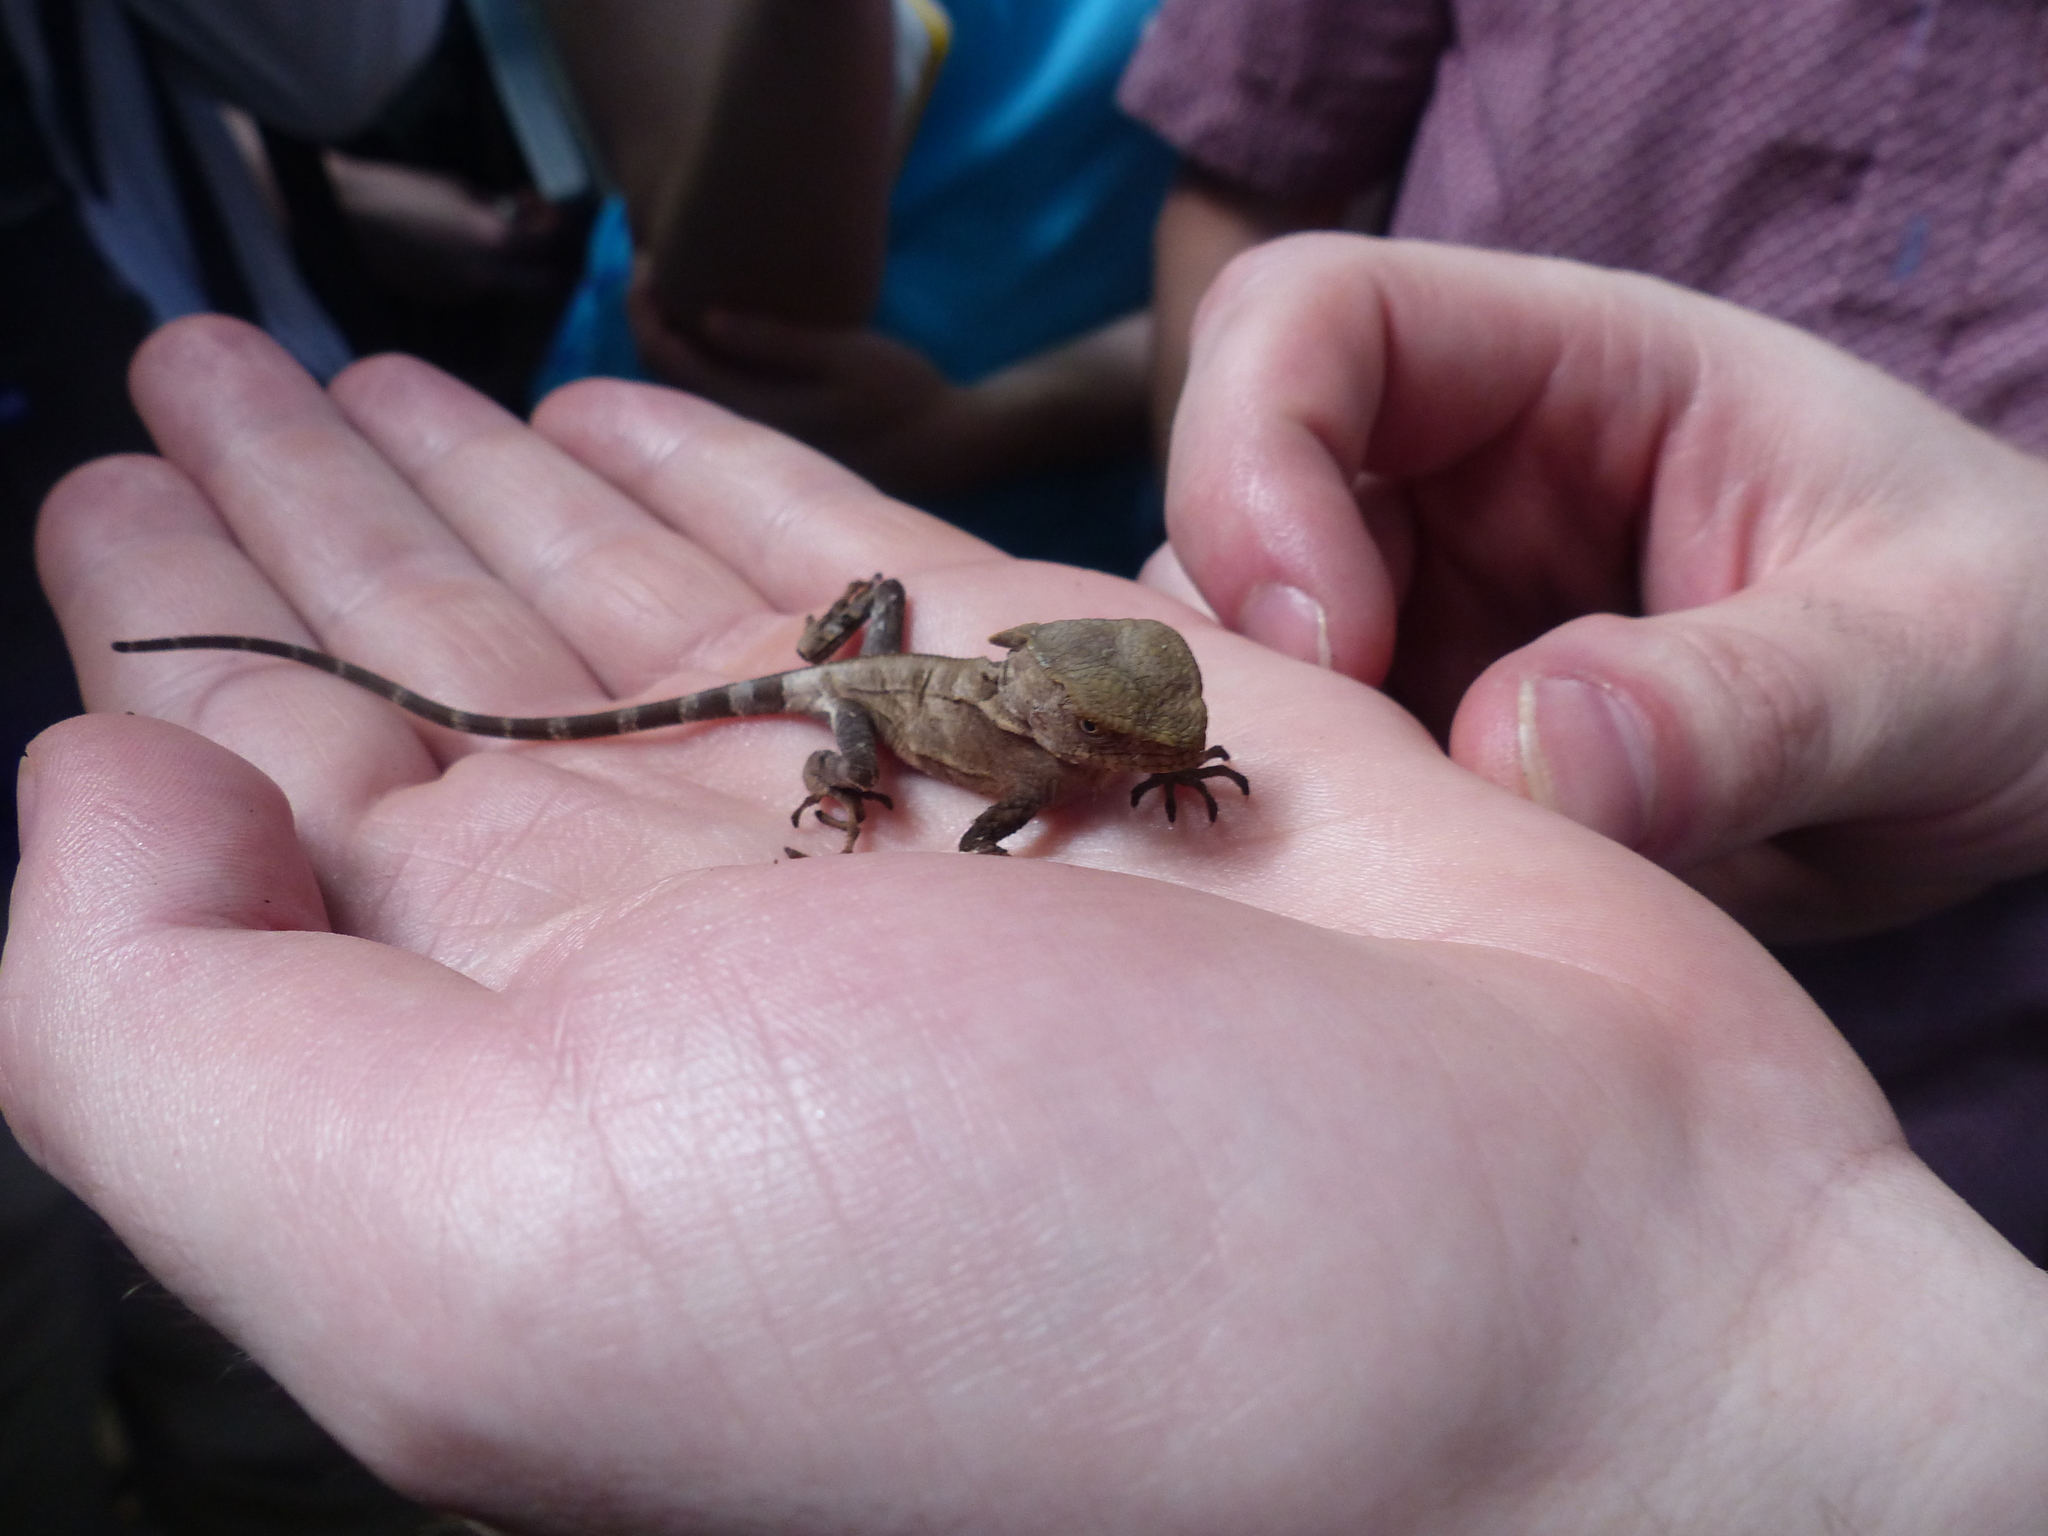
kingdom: Animalia
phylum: Chordata
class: Squamata
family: Corytophanidae
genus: Corytophanes
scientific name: Corytophanes cristatus
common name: Smooth helmeted iguana
